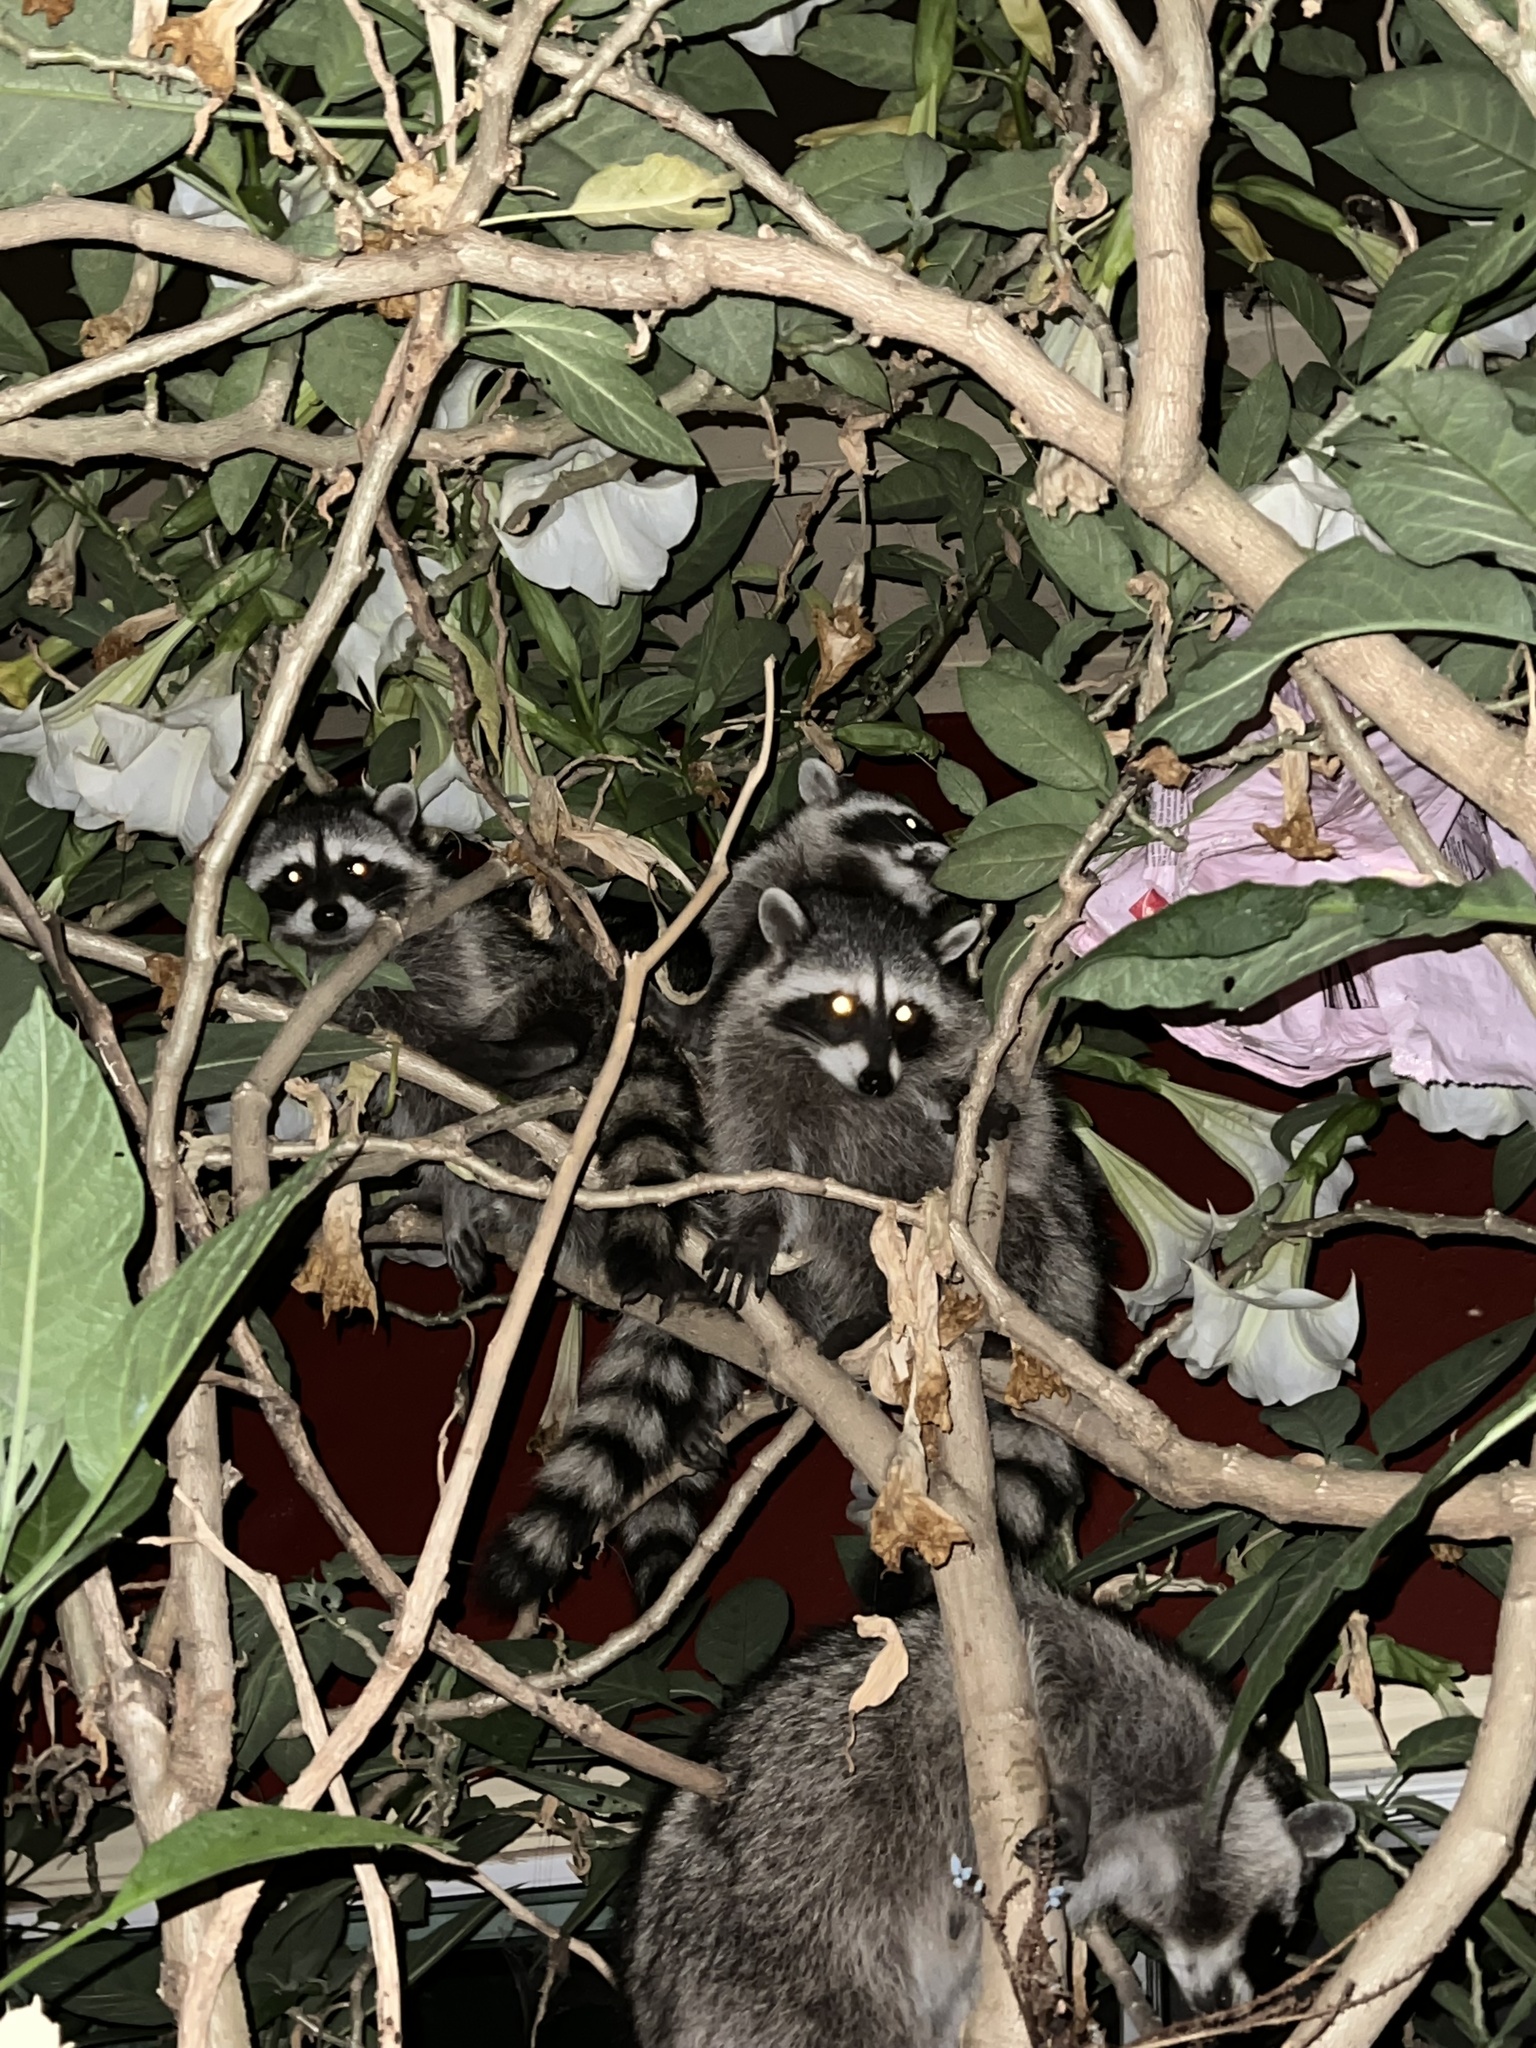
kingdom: Animalia
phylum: Chordata
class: Mammalia
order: Carnivora
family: Procyonidae
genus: Procyon
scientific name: Procyon lotor
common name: Raccoon
